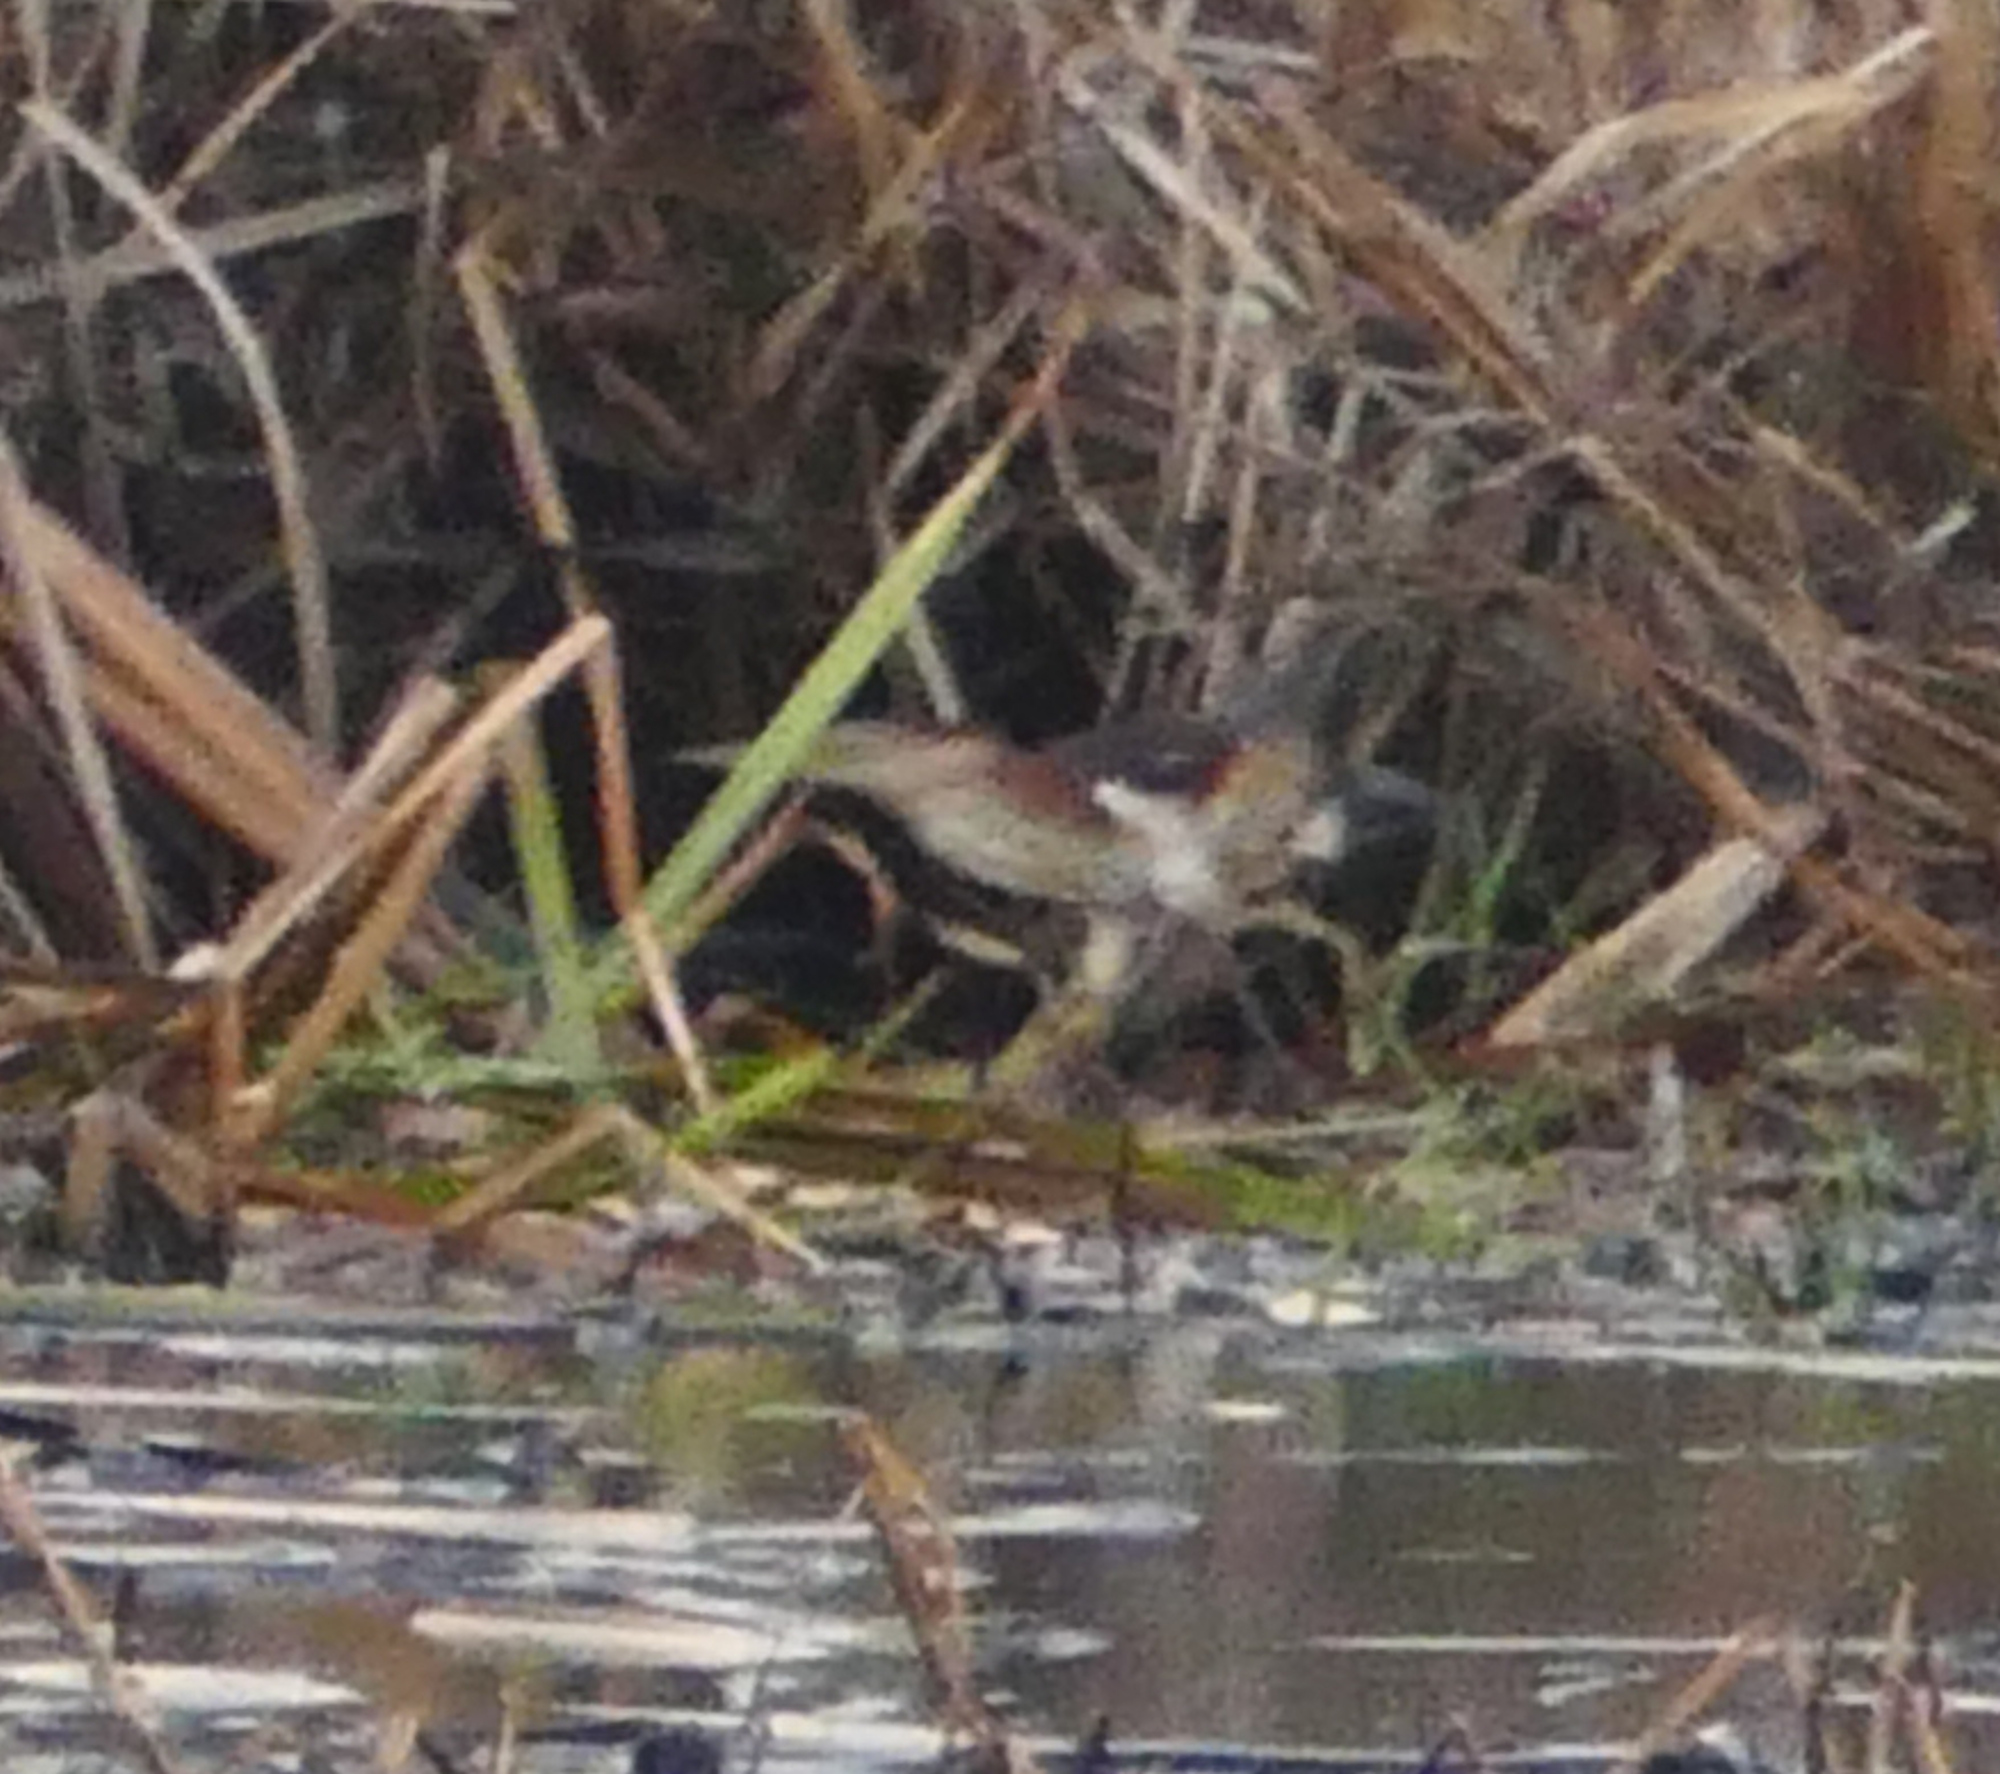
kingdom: Animalia
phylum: Chordata
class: Aves
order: Pelecaniformes
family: Ardeidae
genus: Ixobrychus
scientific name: Ixobrychus exilis
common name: Least bittern
